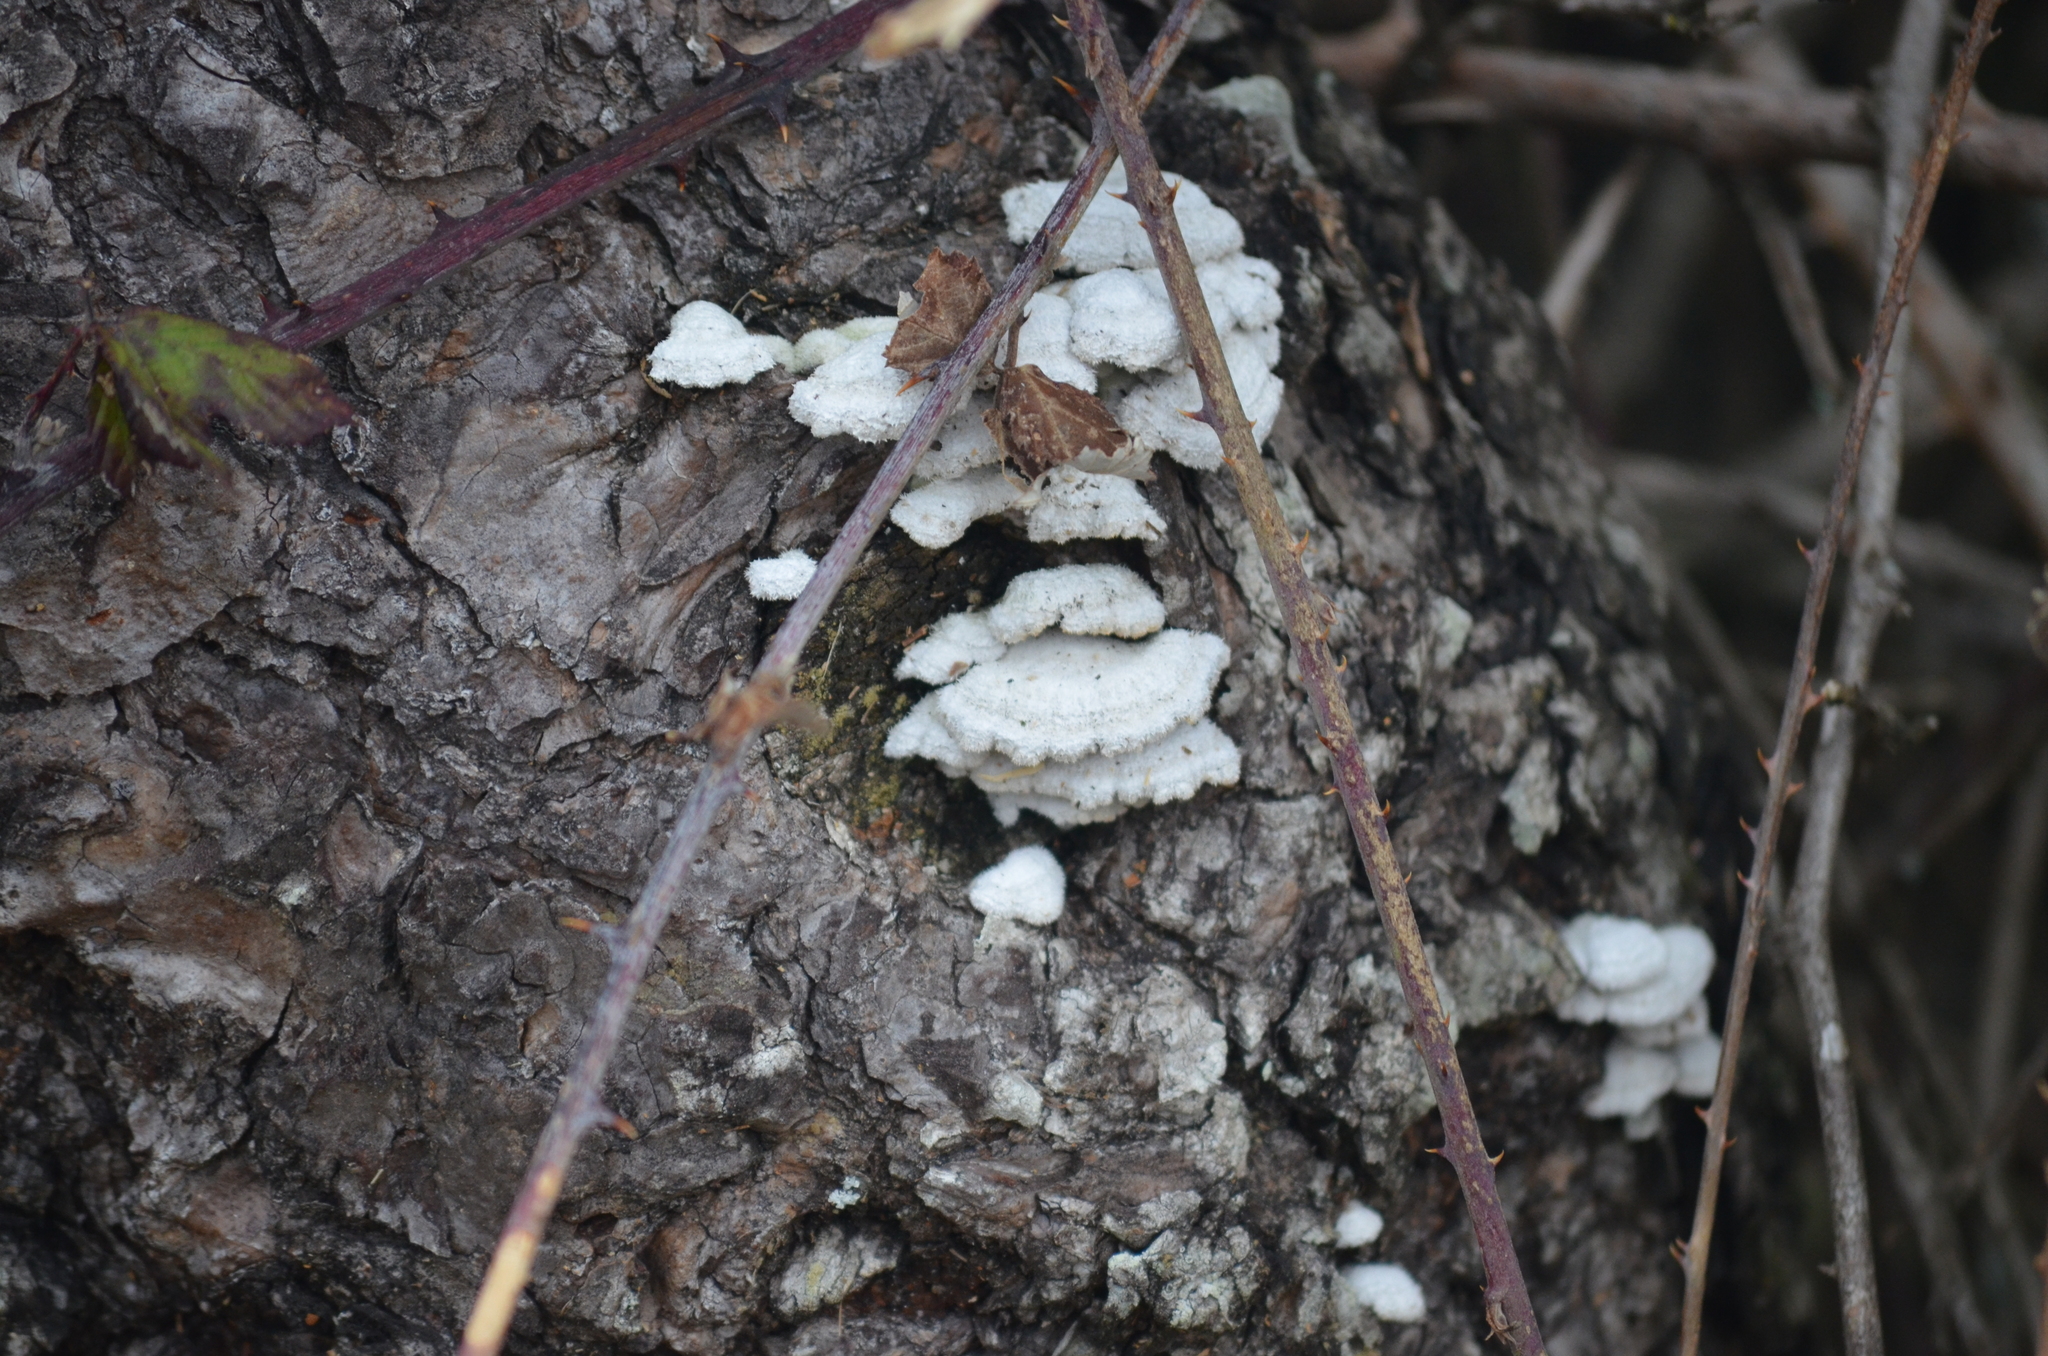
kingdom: Fungi
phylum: Basidiomycota
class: Agaricomycetes
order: Agaricales
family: Schizophyllaceae
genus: Schizophyllum
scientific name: Schizophyllum commune
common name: Common porecrust
